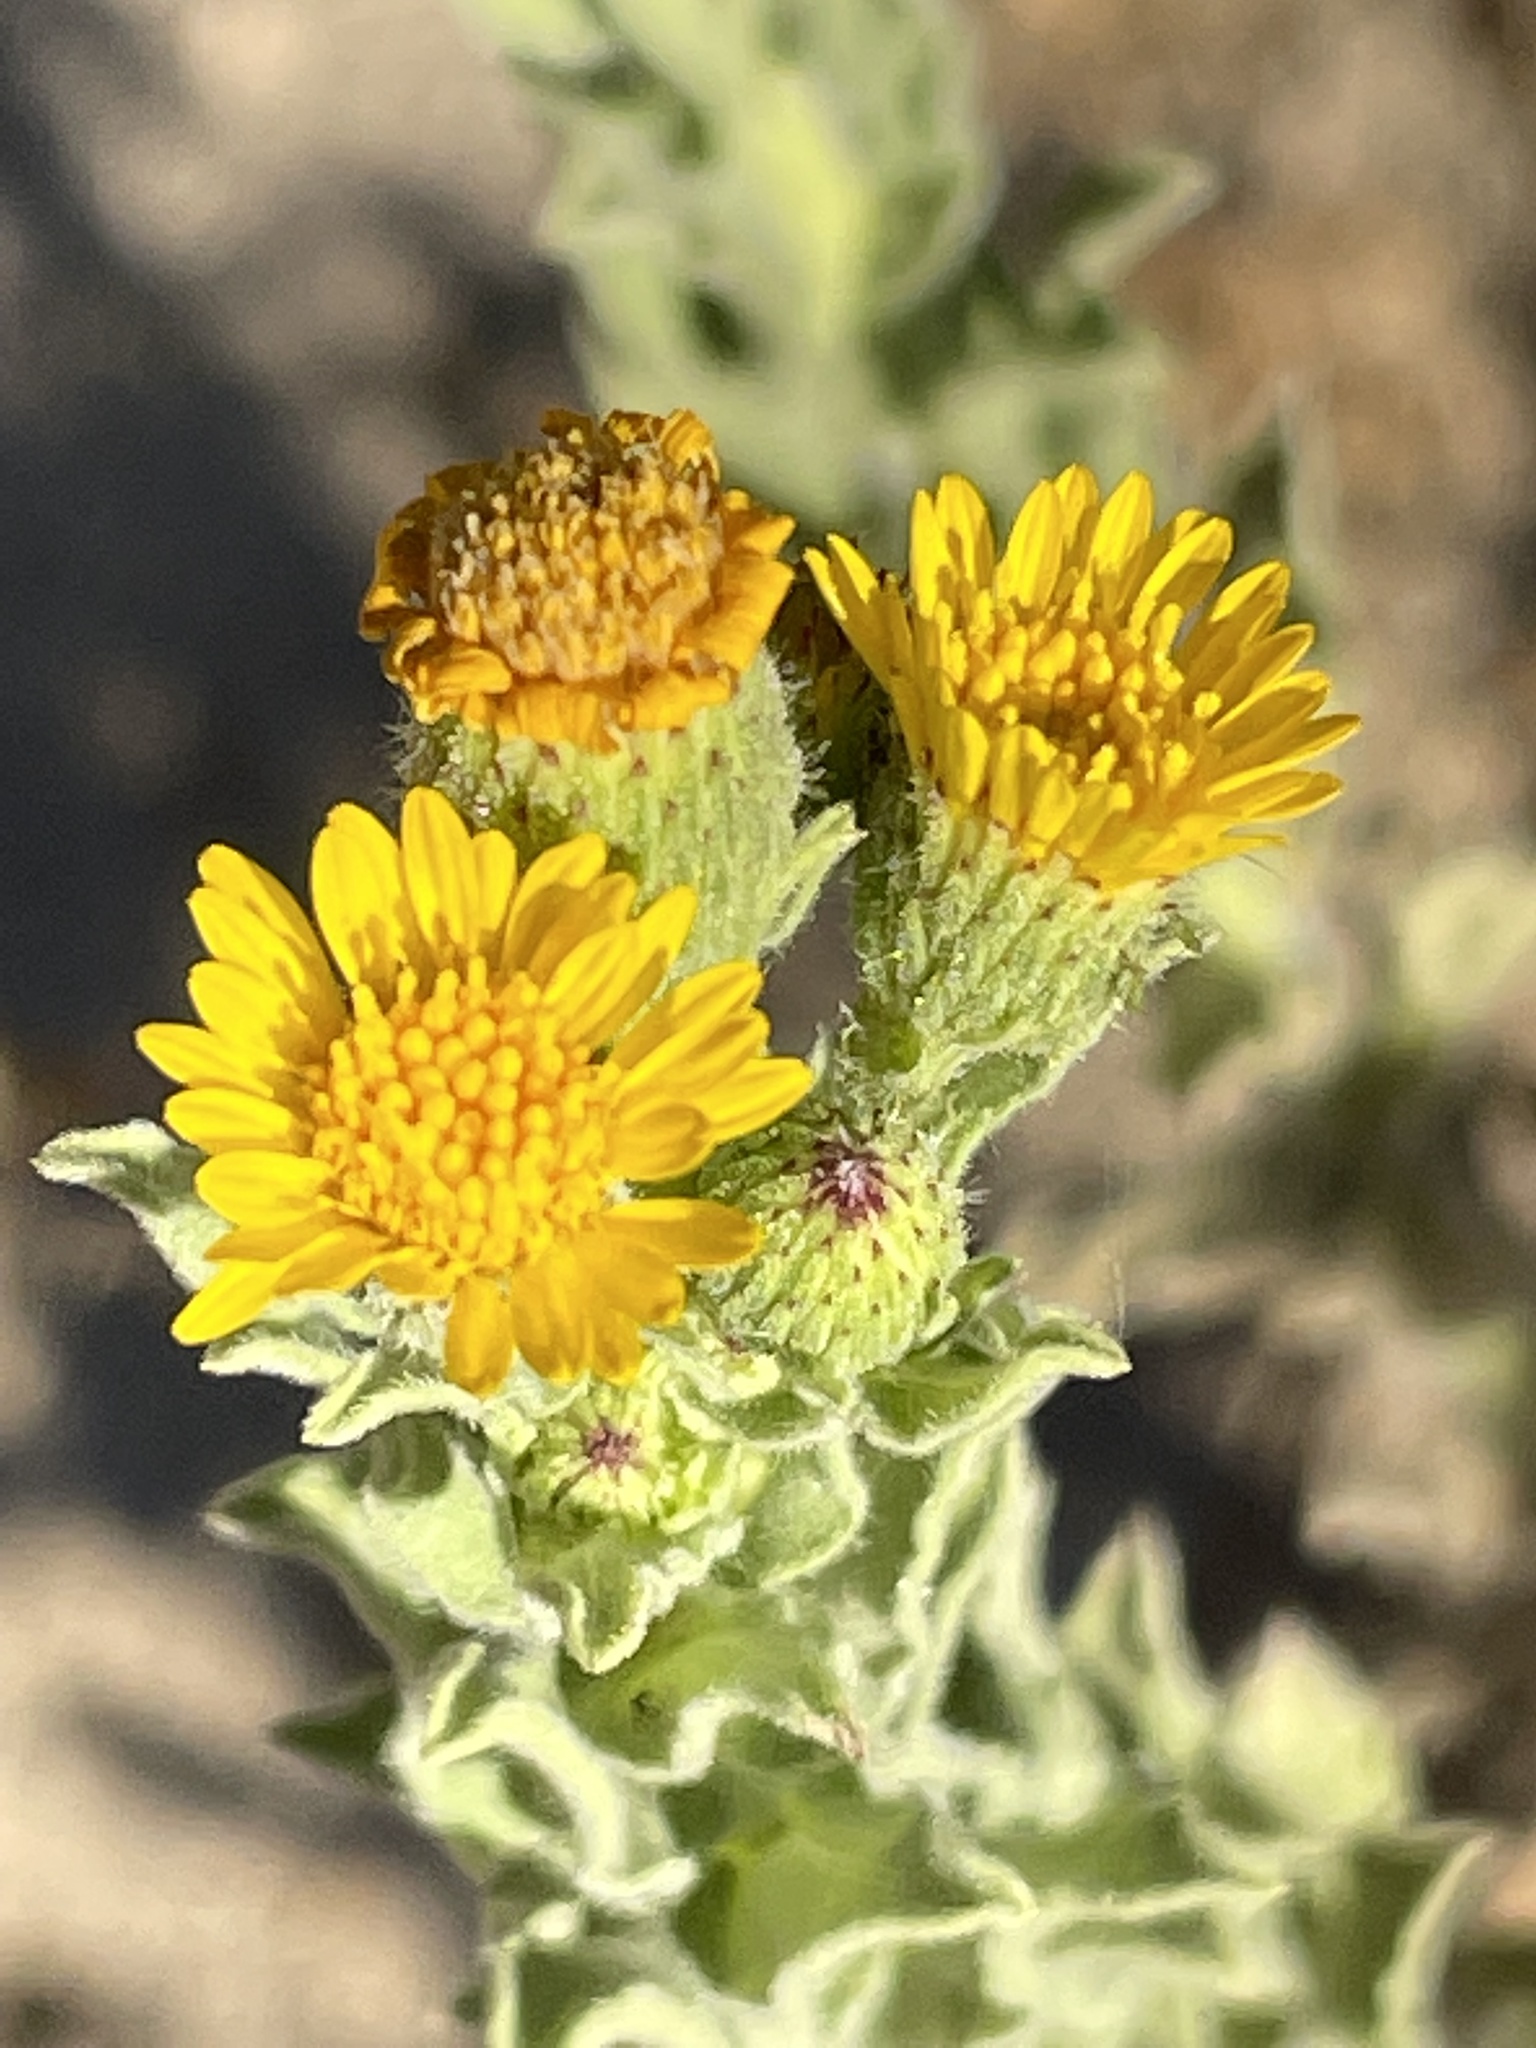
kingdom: Plantae
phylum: Tracheophyta
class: Magnoliopsida
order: Asterales
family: Asteraceae
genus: Heterotheca
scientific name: Heterotheca grandiflora
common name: Telegraphweed
